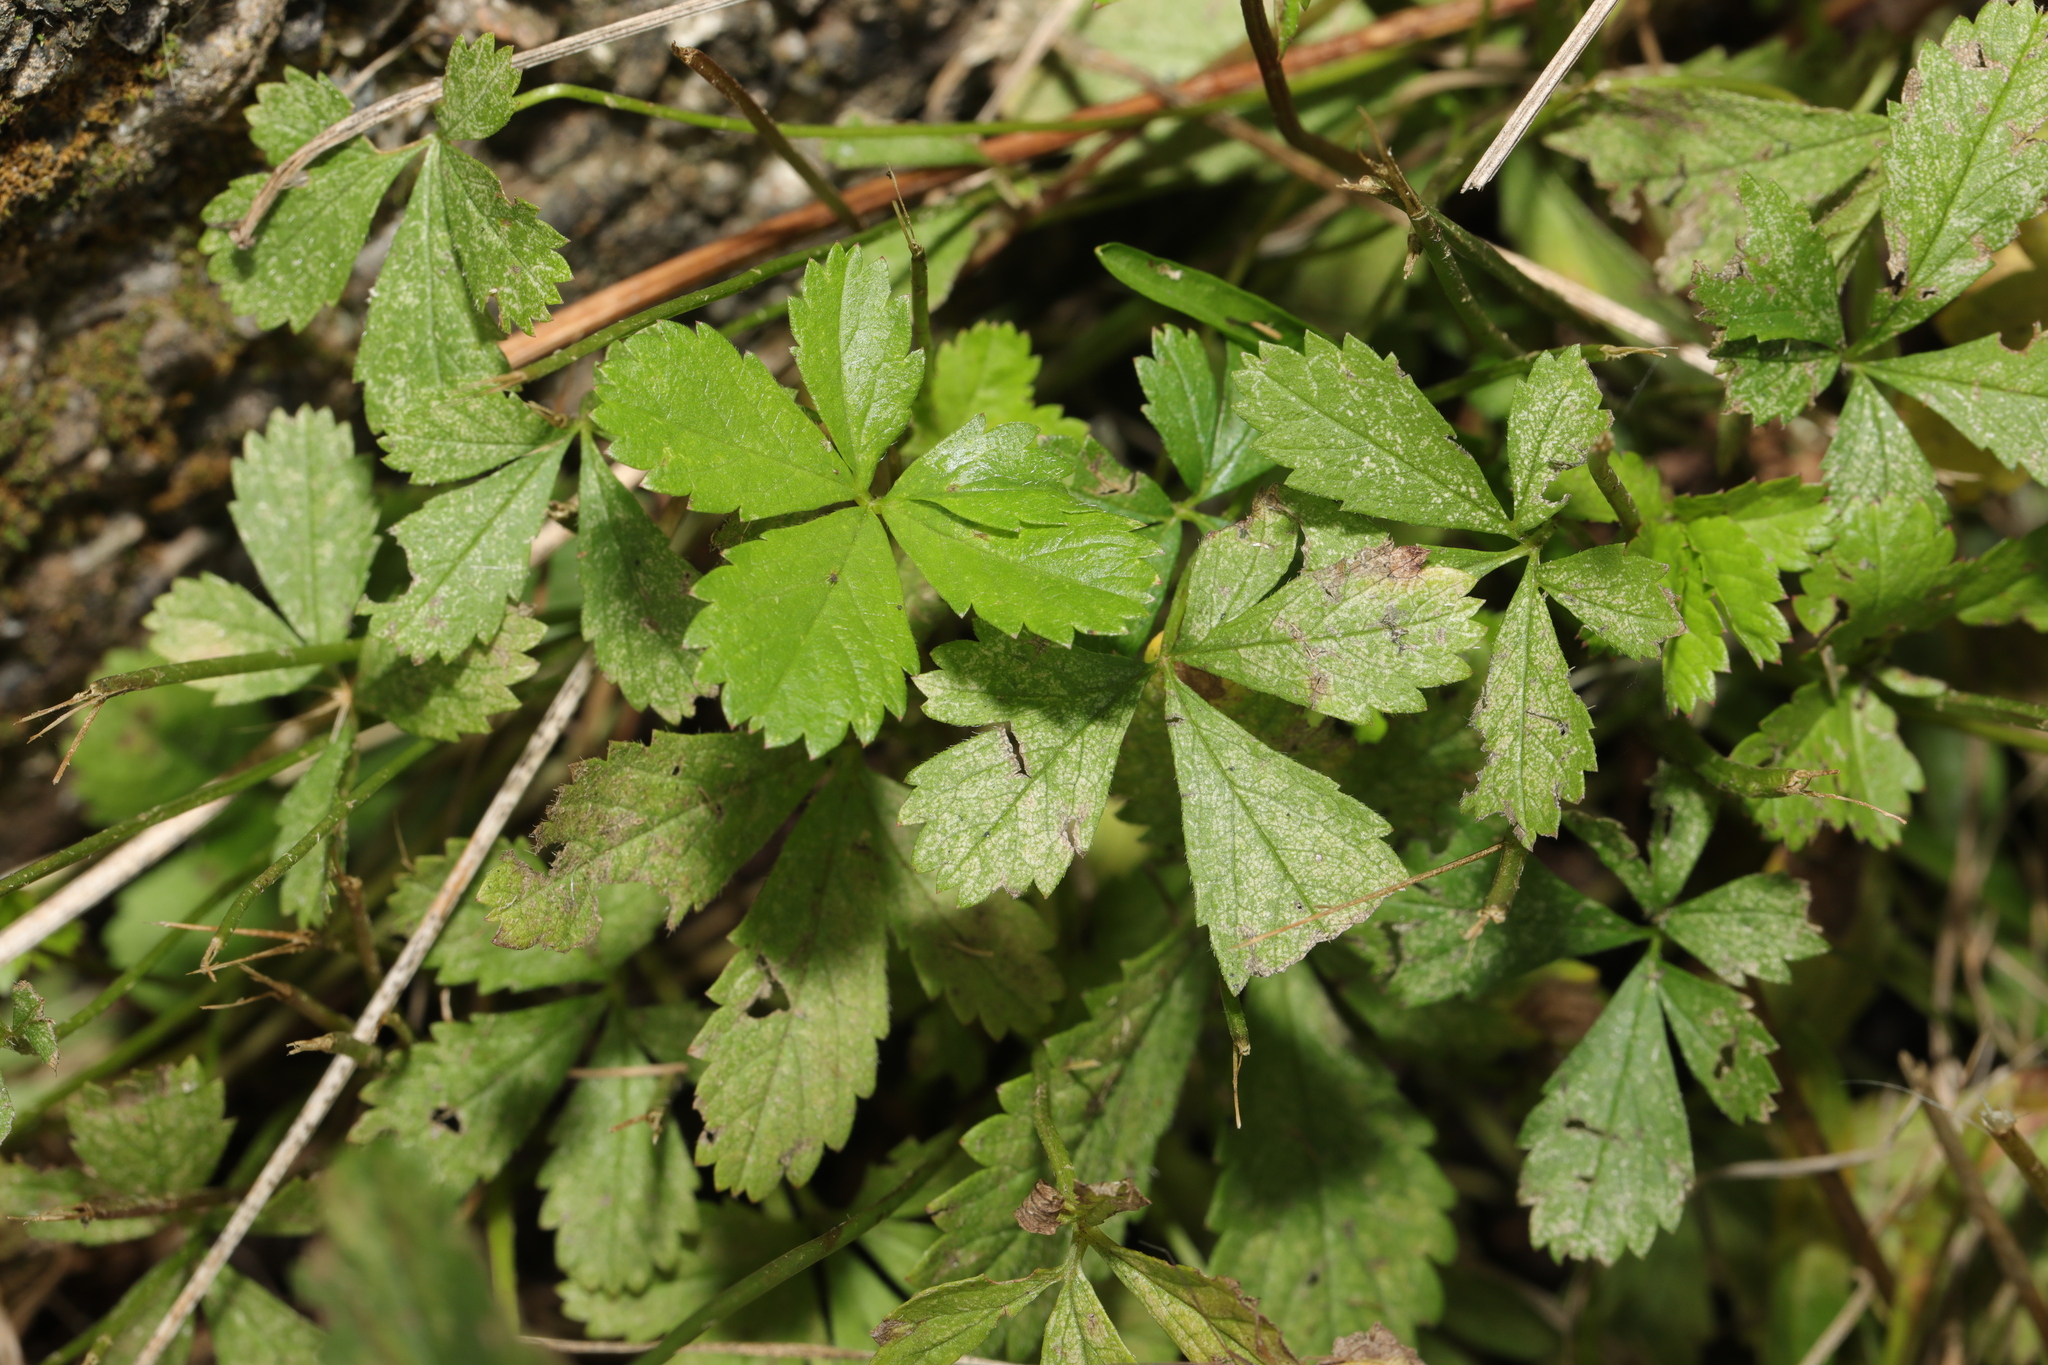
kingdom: Plantae
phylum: Tracheophyta
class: Magnoliopsida
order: Rosales
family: Rosaceae
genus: Potentilla
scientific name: Potentilla reptans
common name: Creeping cinquefoil
